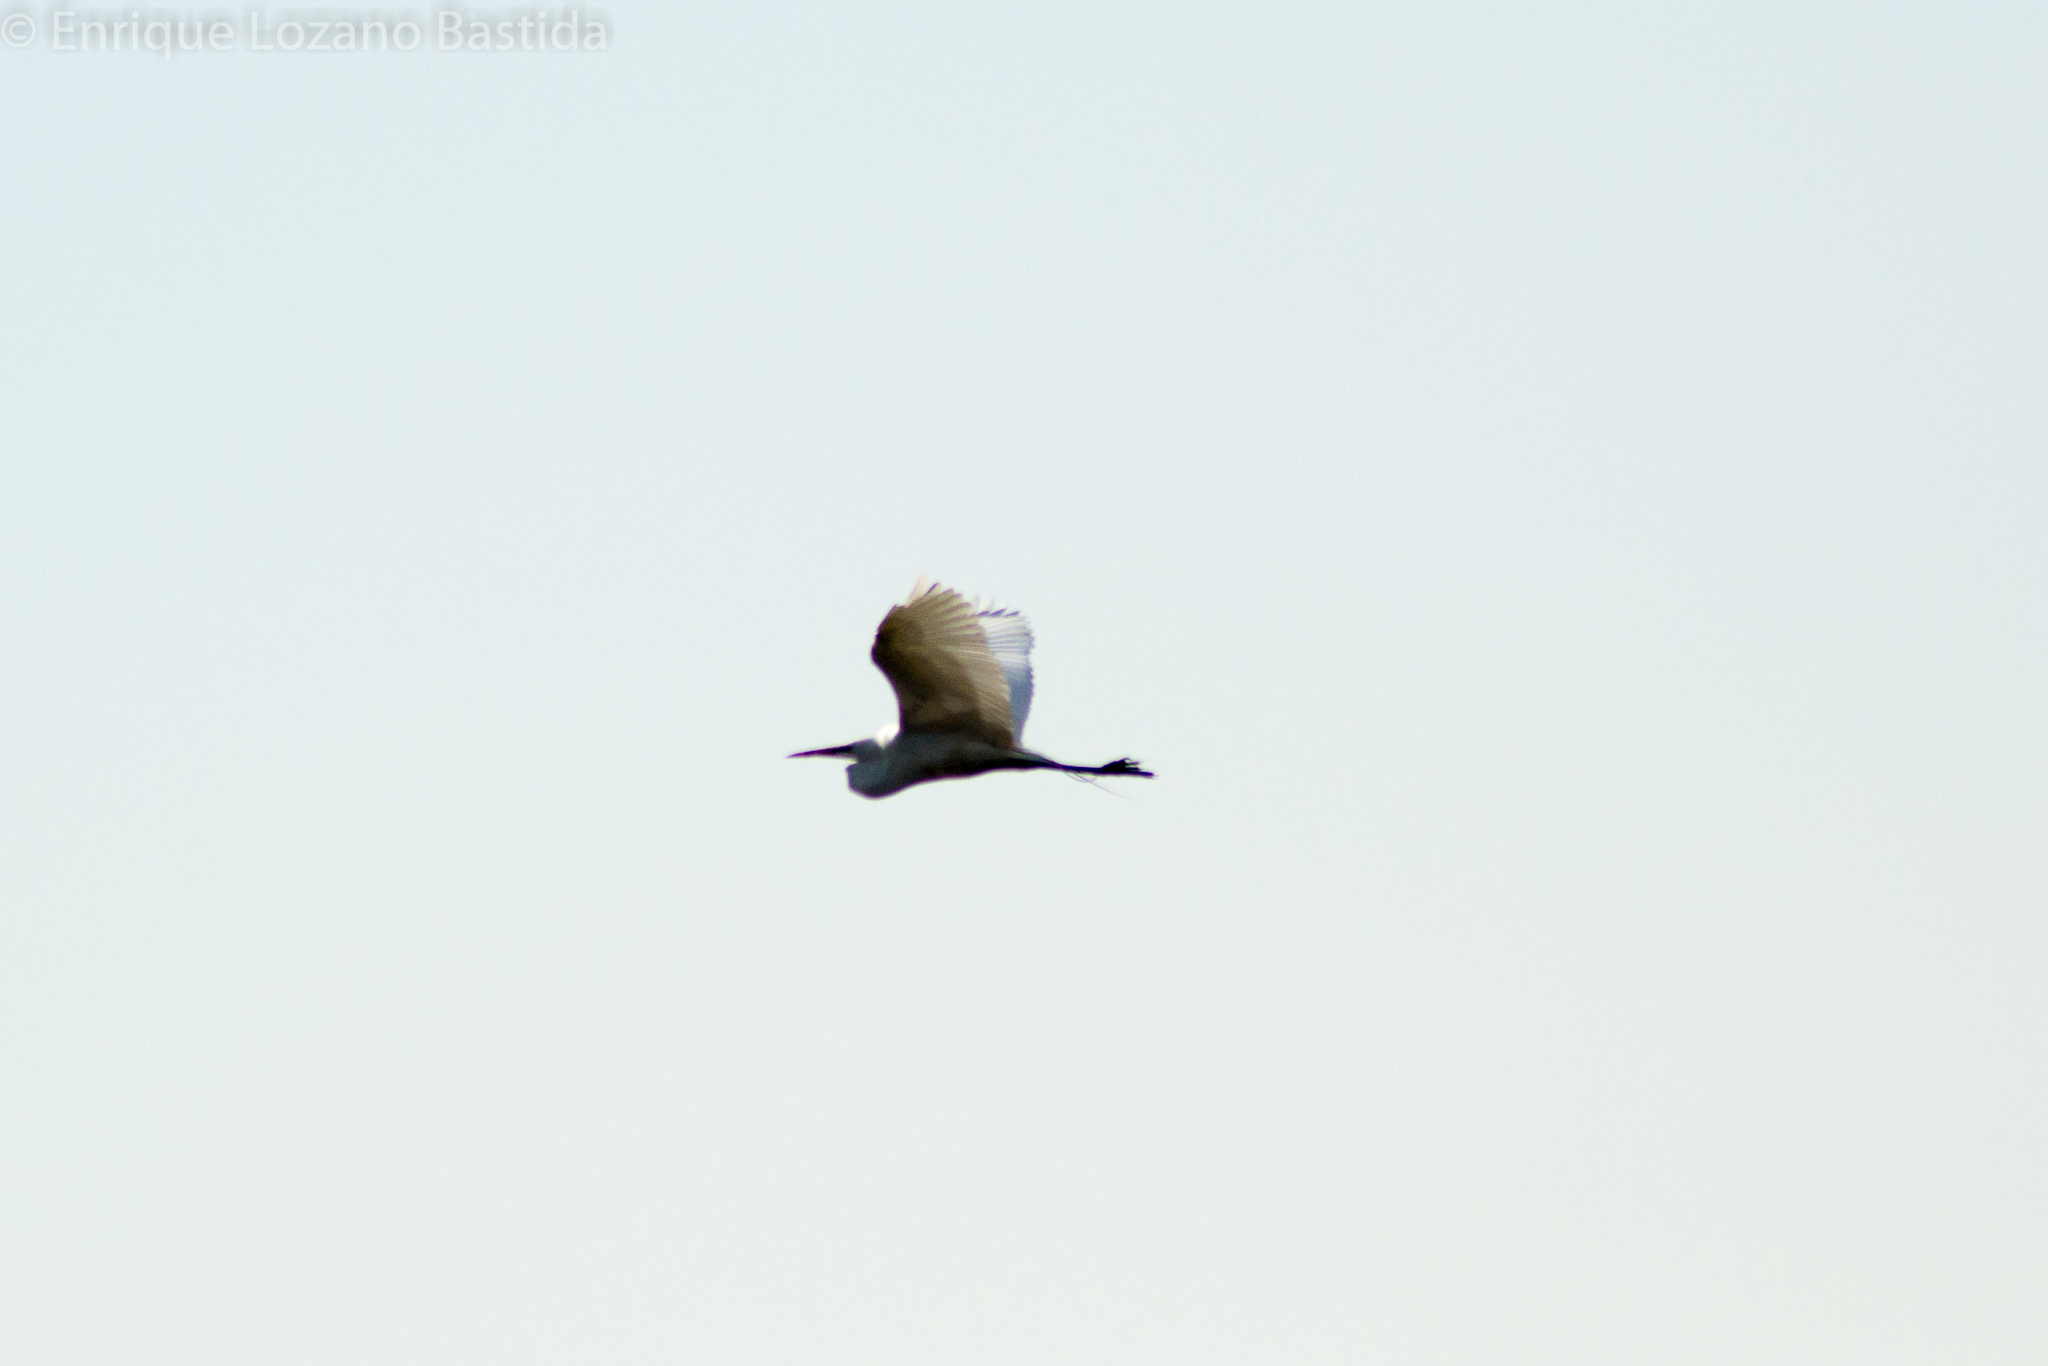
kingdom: Animalia
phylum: Chordata
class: Aves
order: Pelecaniformes
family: Ardeidae
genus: Ardea
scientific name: Ardea alba
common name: Great egret
